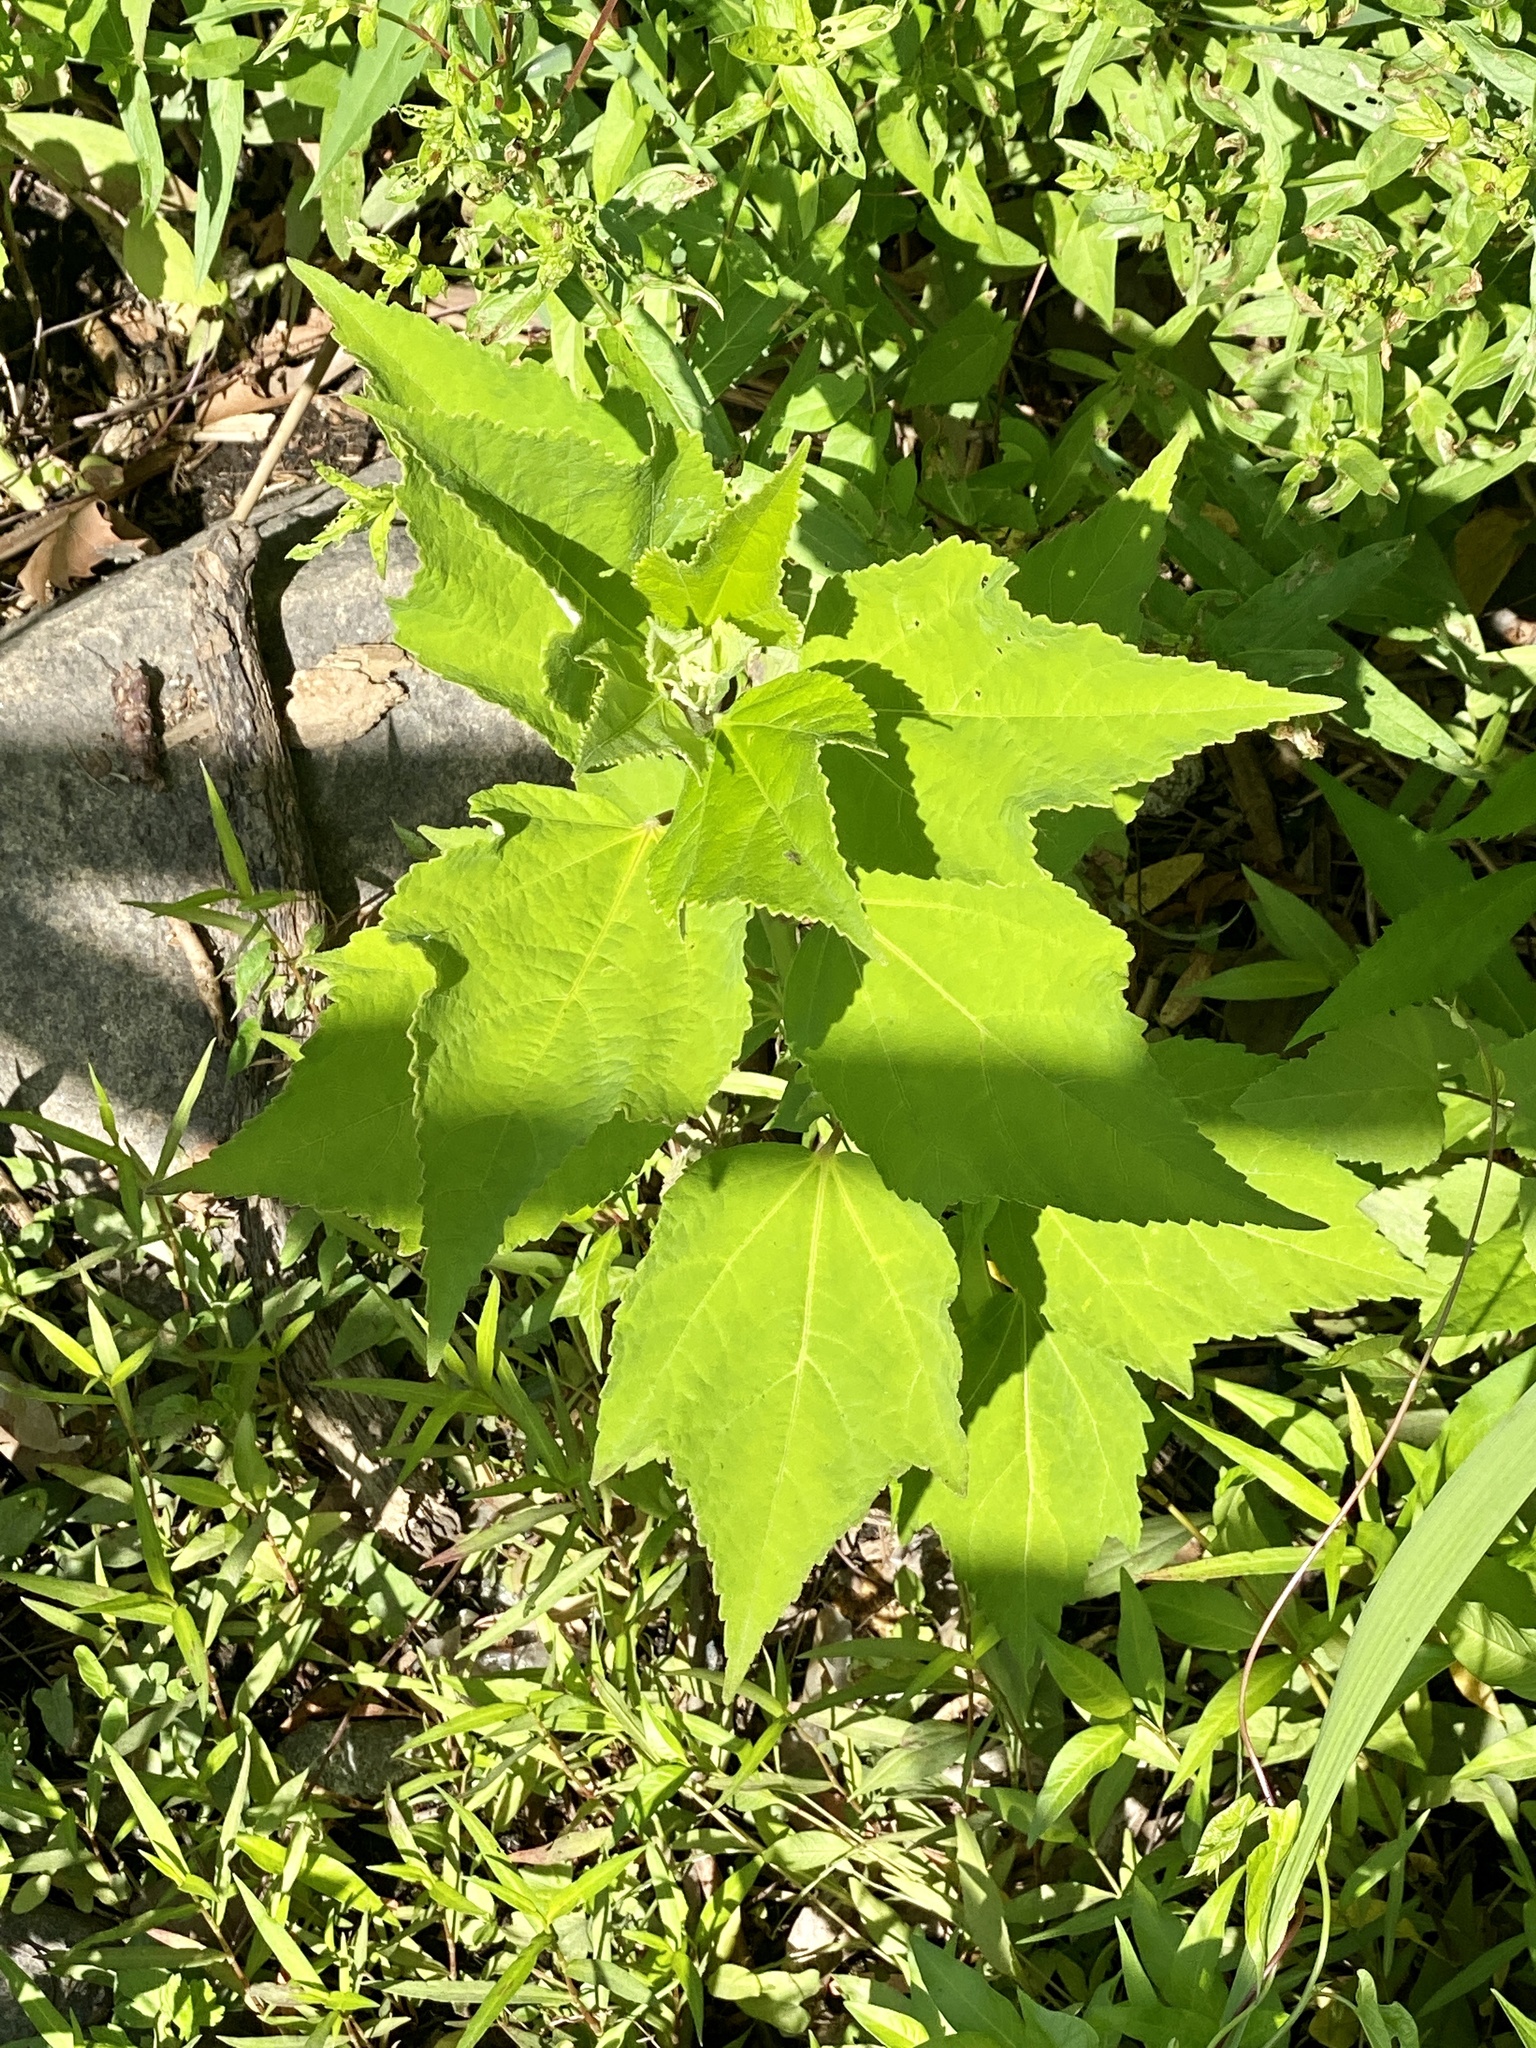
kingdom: Plantae
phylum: Tracheophyta
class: Magnoliopsida
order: Malvales
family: Malvaceae
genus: Hibiscus
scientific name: Hibiscus moscheutos
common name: Common rose-mallow
